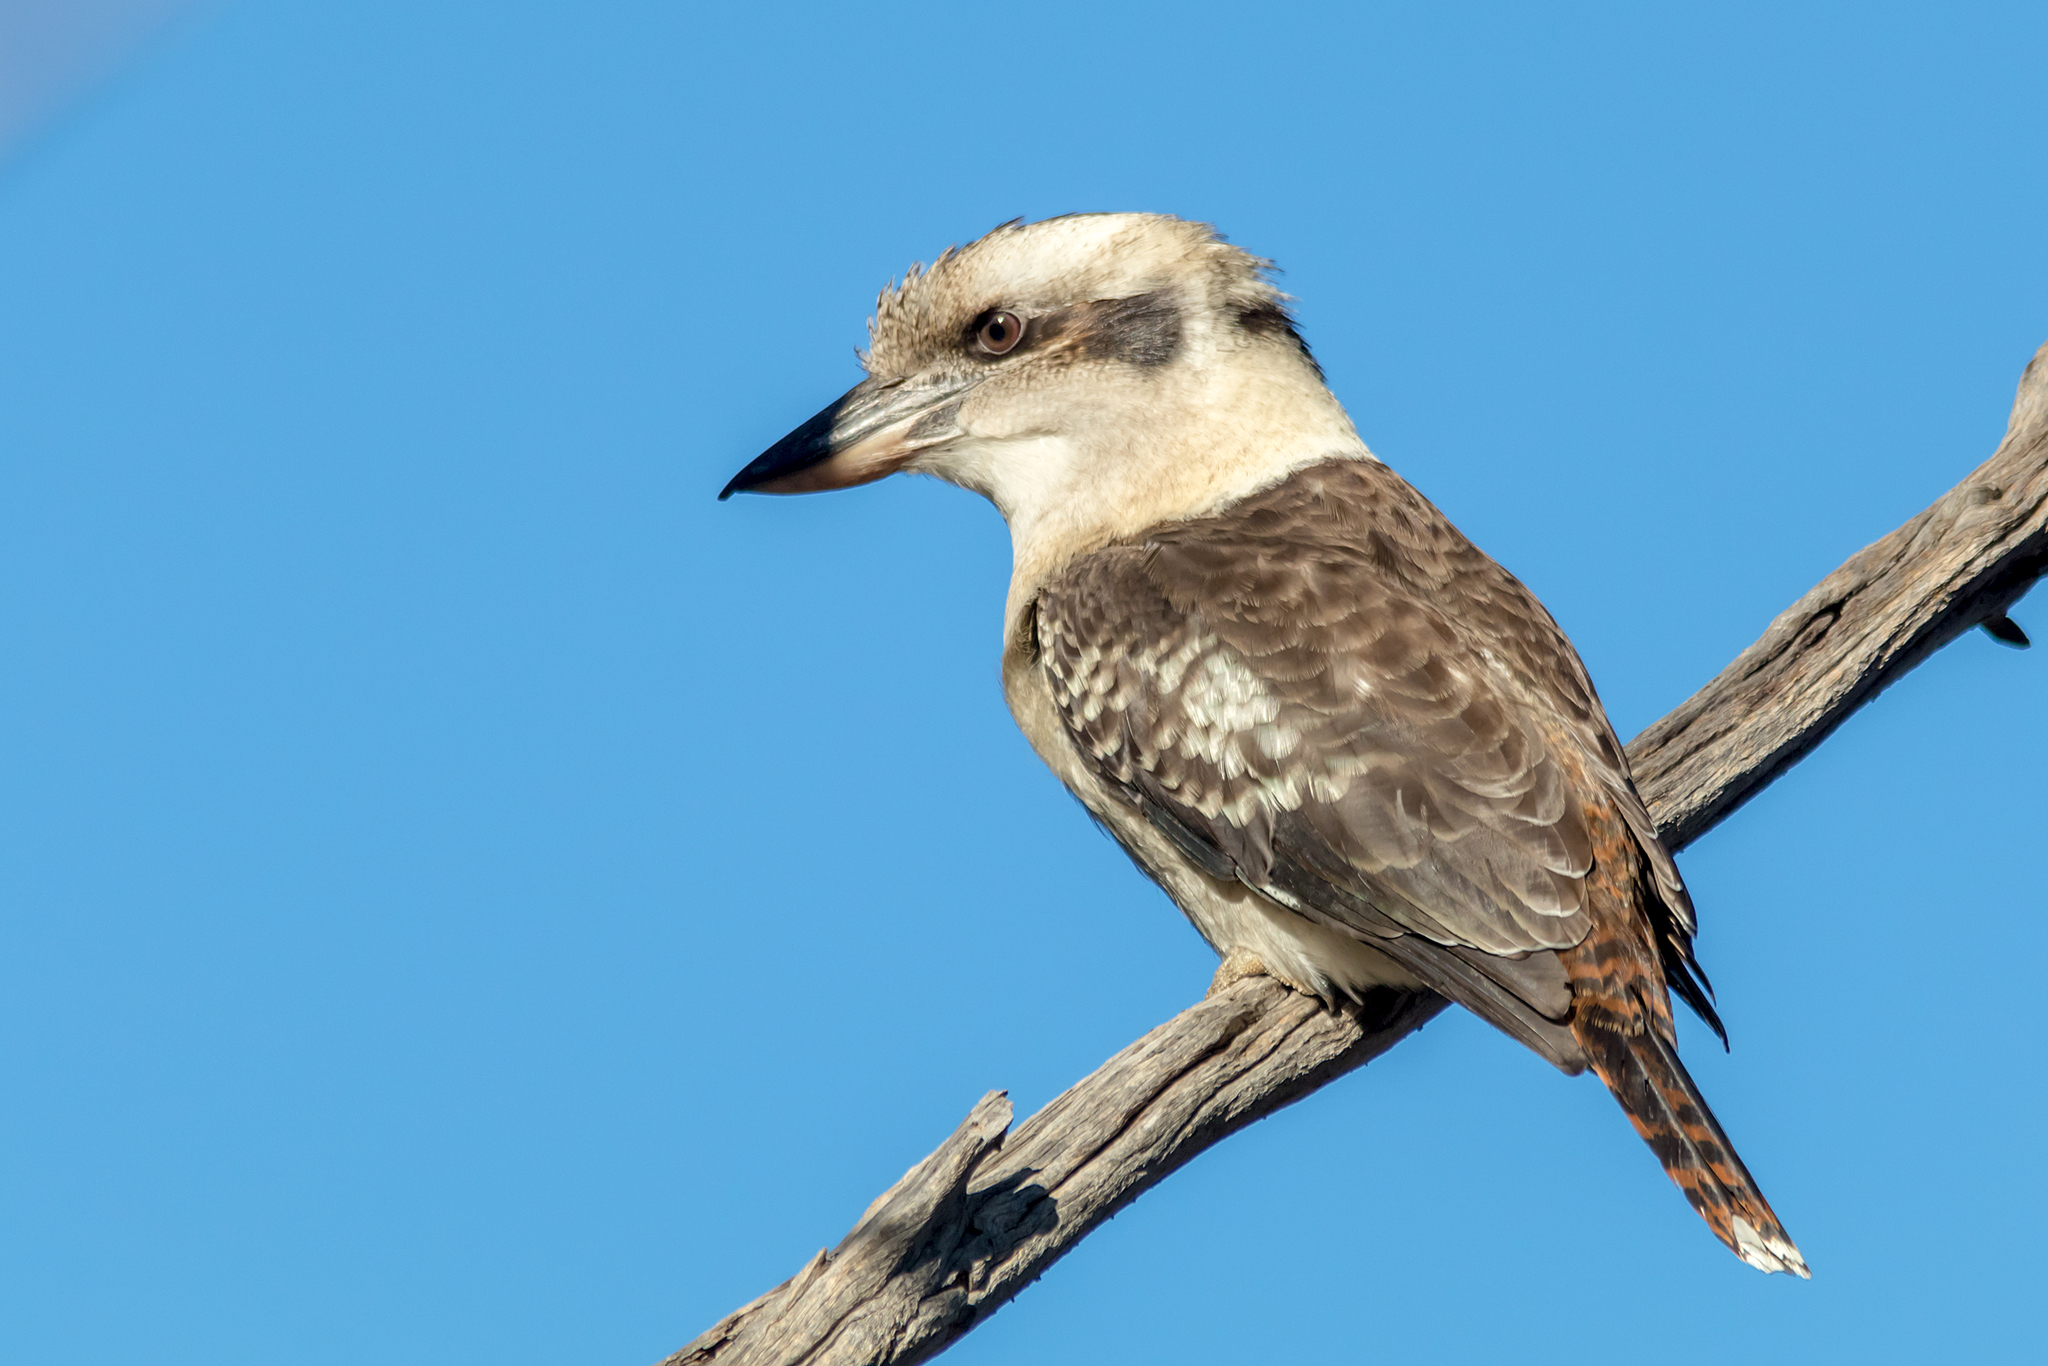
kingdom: Animalia
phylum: Chordata
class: Aves
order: Coraciiformes
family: Alcedinidae
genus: Dacelo
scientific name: Dacelo novaeguineae
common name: Laughing kookaburra
